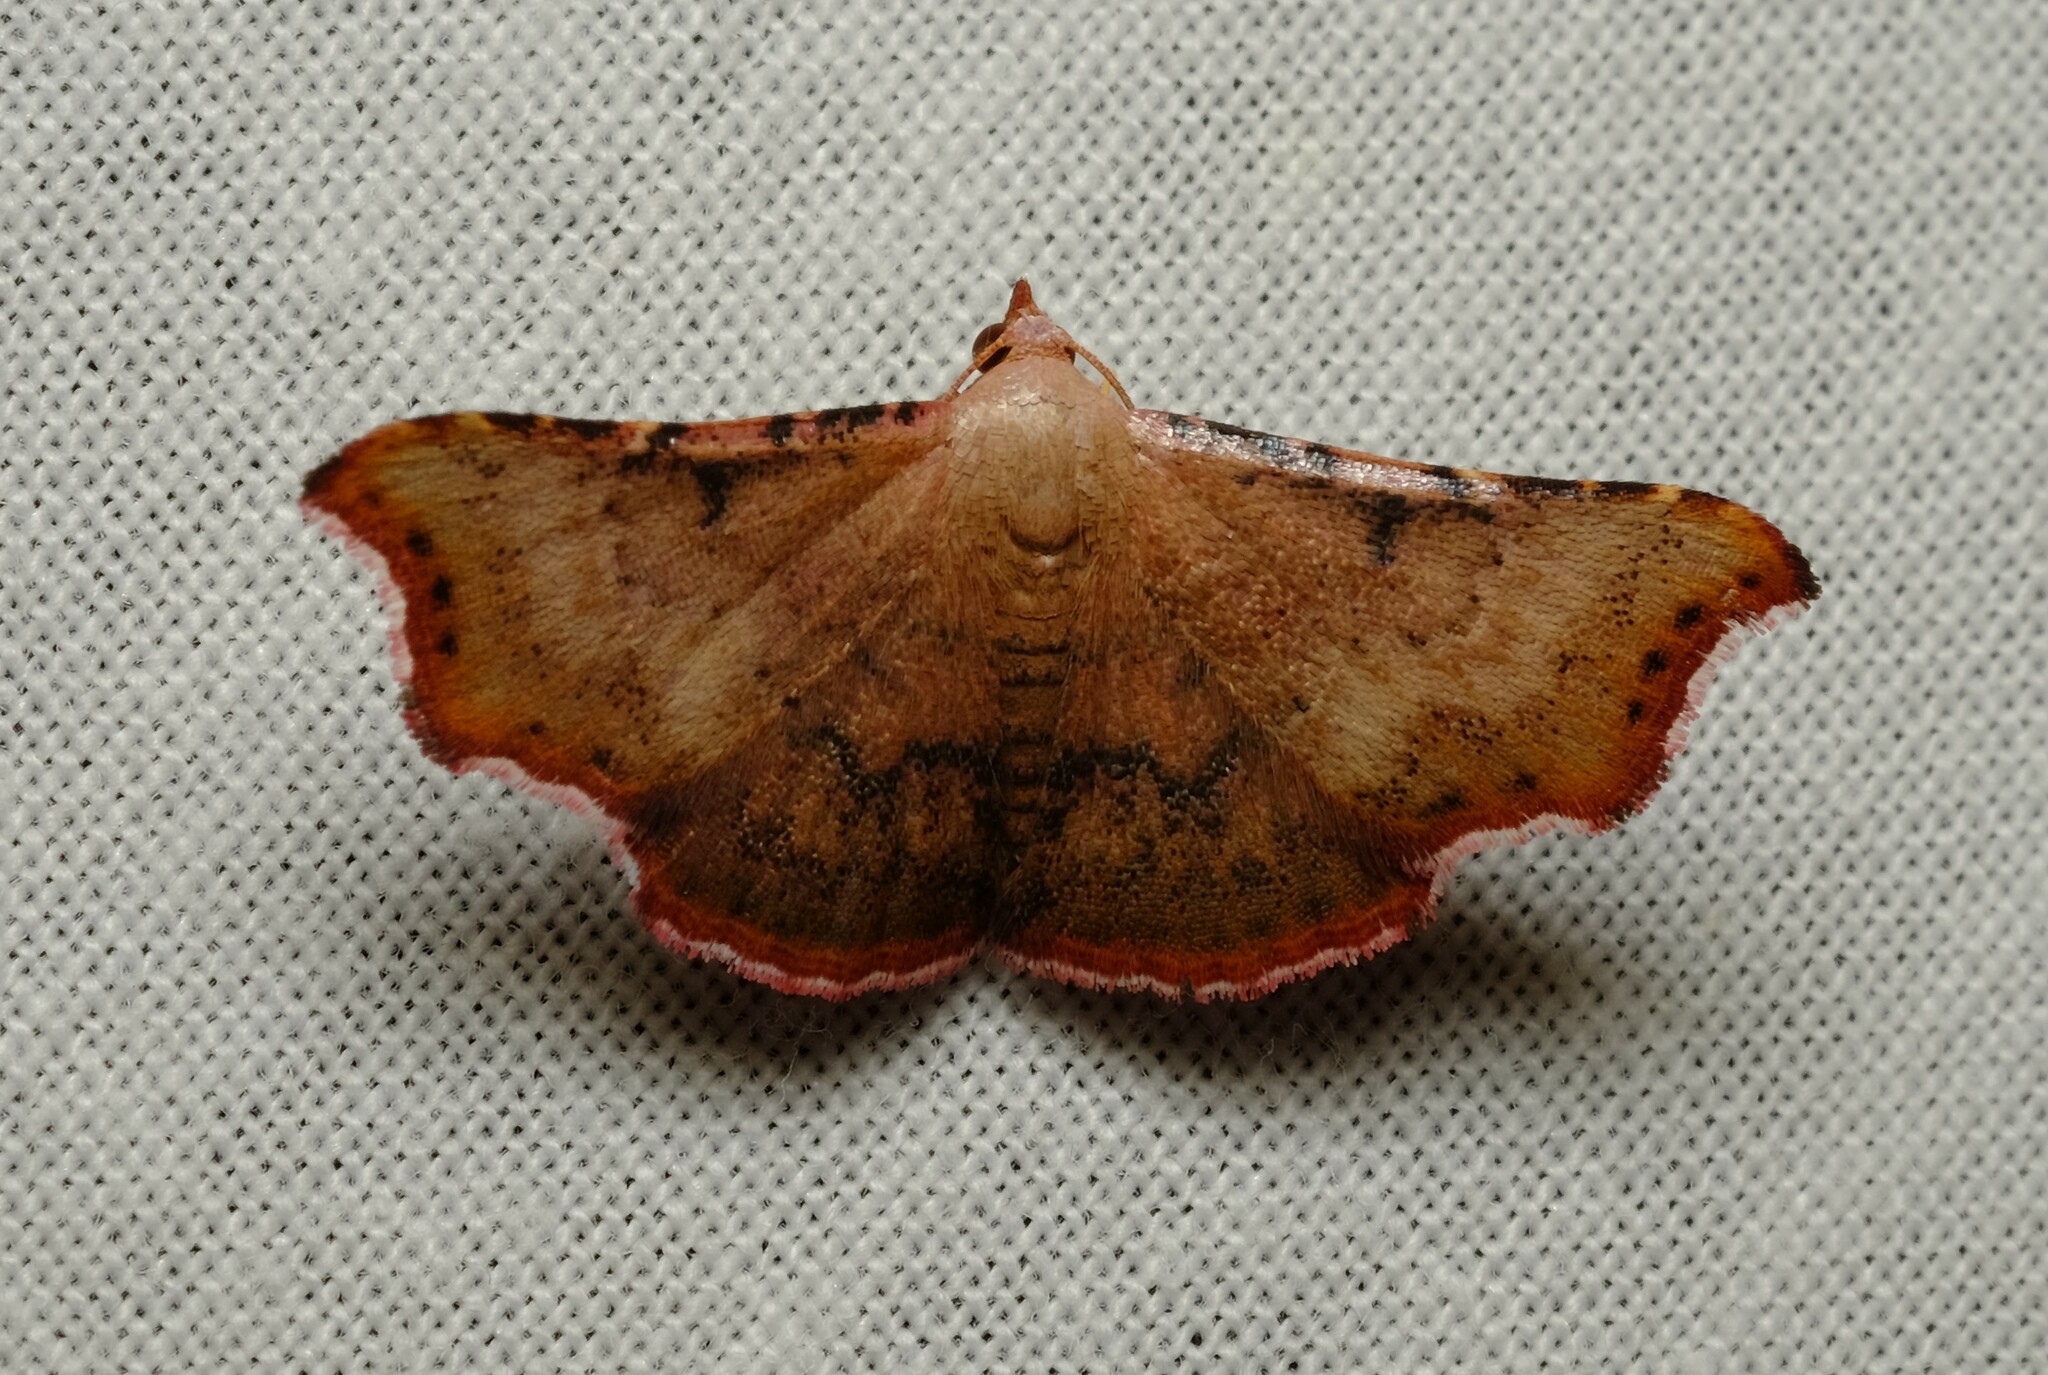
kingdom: Animalia
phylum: Arthropoda
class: Insecta
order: Lepidoptera
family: Erebidae
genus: Corgatha
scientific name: Corgatha dipyra
